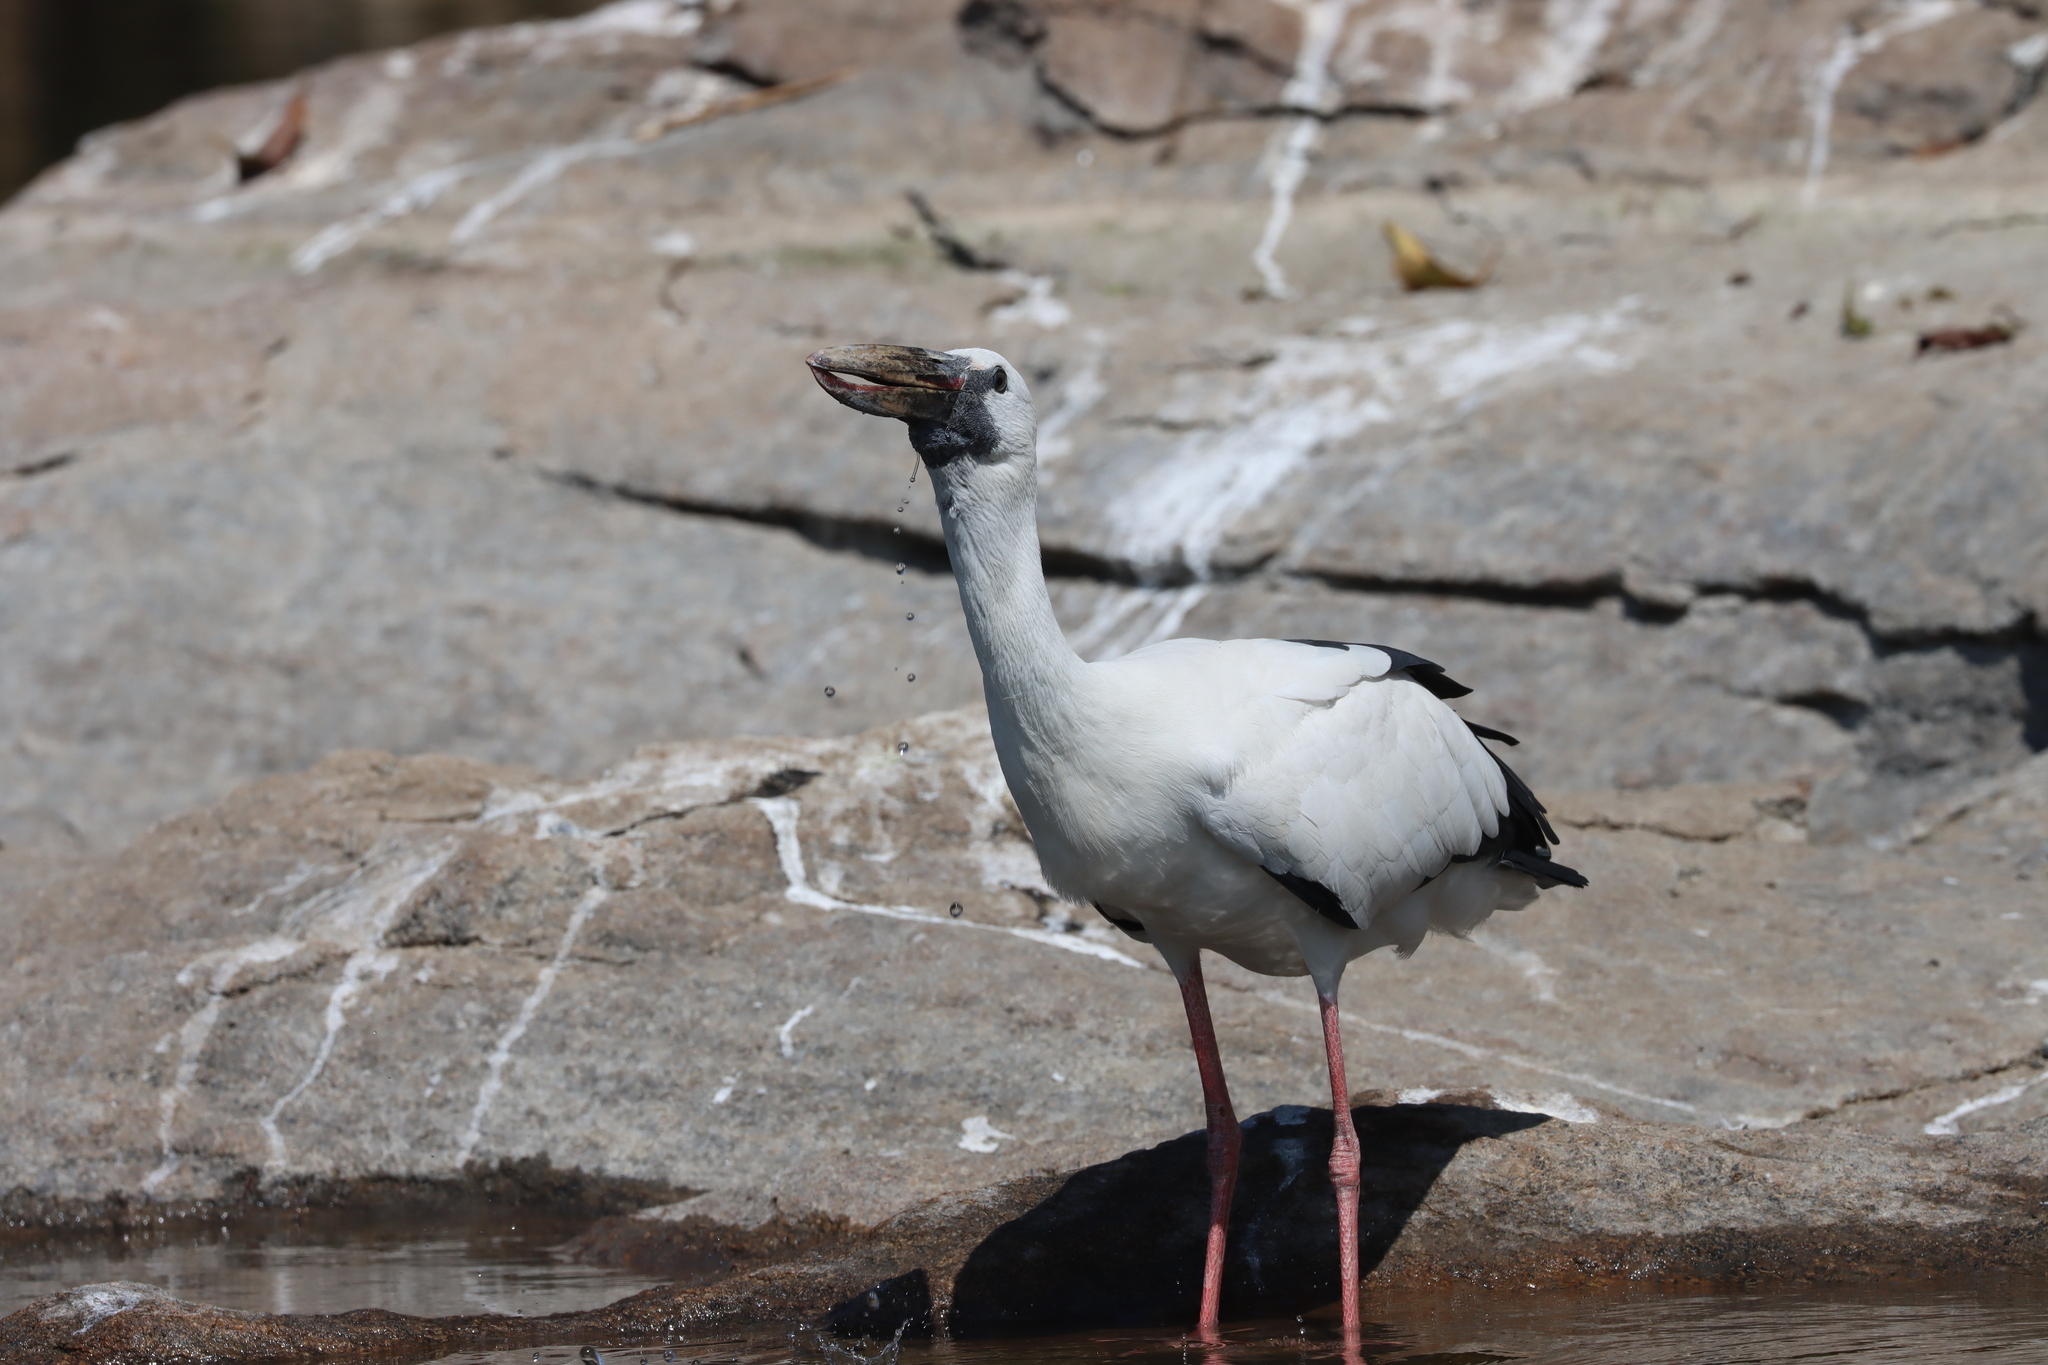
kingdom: Animalia
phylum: Chordata
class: Aves
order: Ciconiiformes
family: Ciconiidae
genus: Anastomus
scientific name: Anastomus oscitans
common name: Asian openbill
